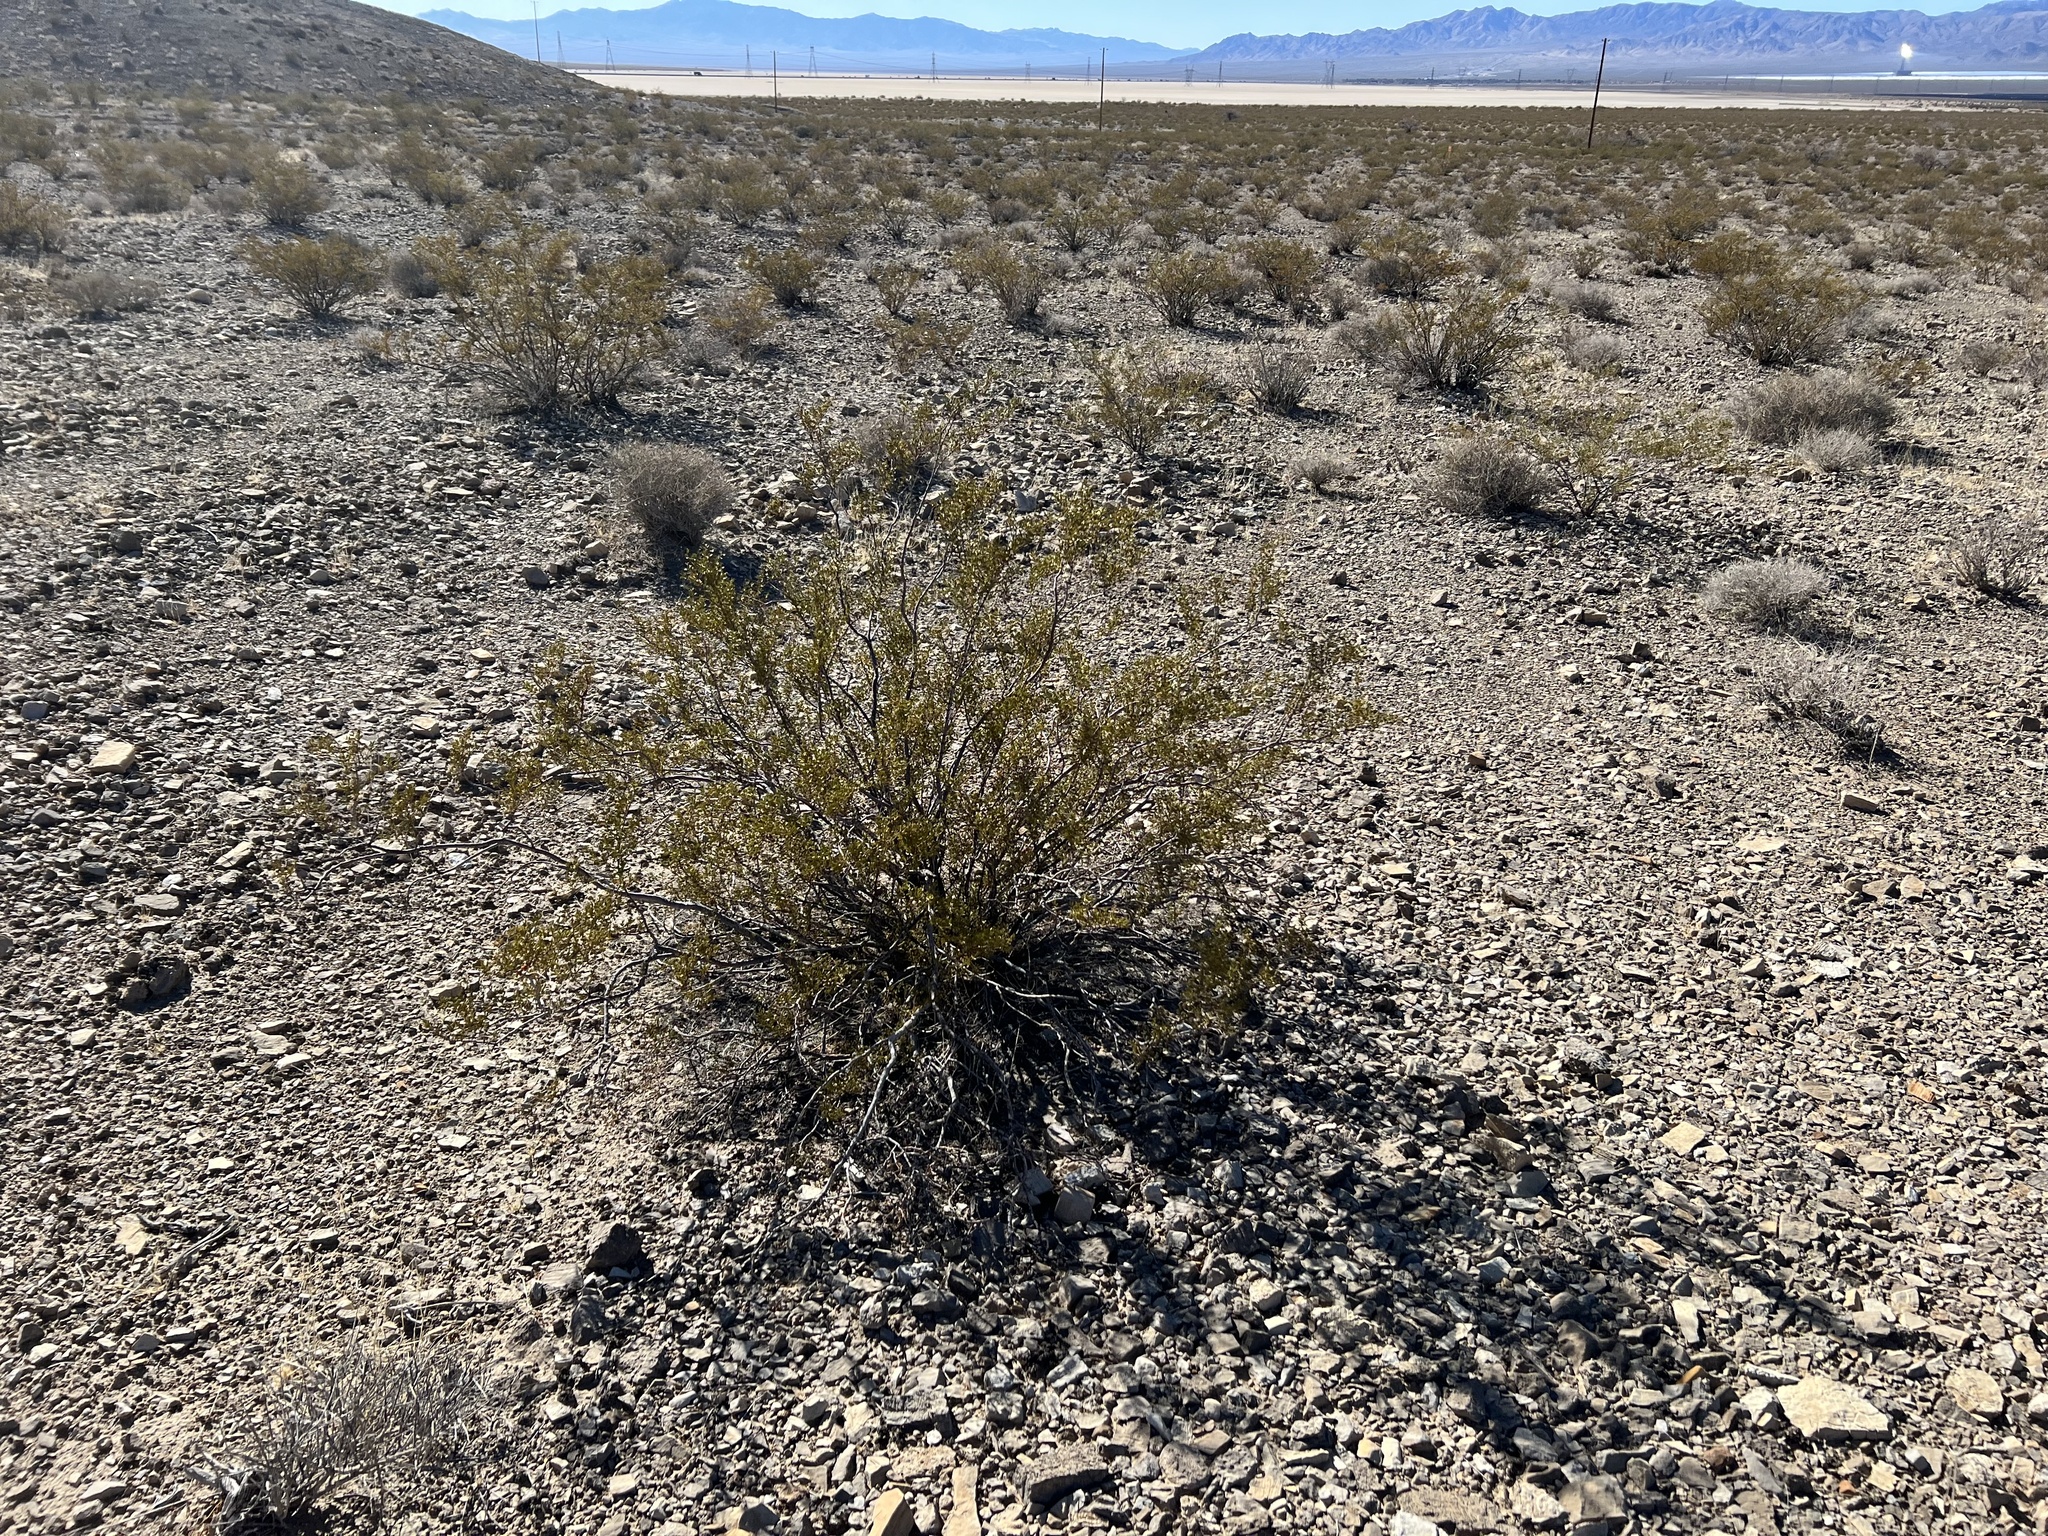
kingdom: Plantae
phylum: Tracheophyta
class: Magnoliopsida
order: Zygophyllales
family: Zygophyllaceae
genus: Larrea
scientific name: Larrea tridentata
